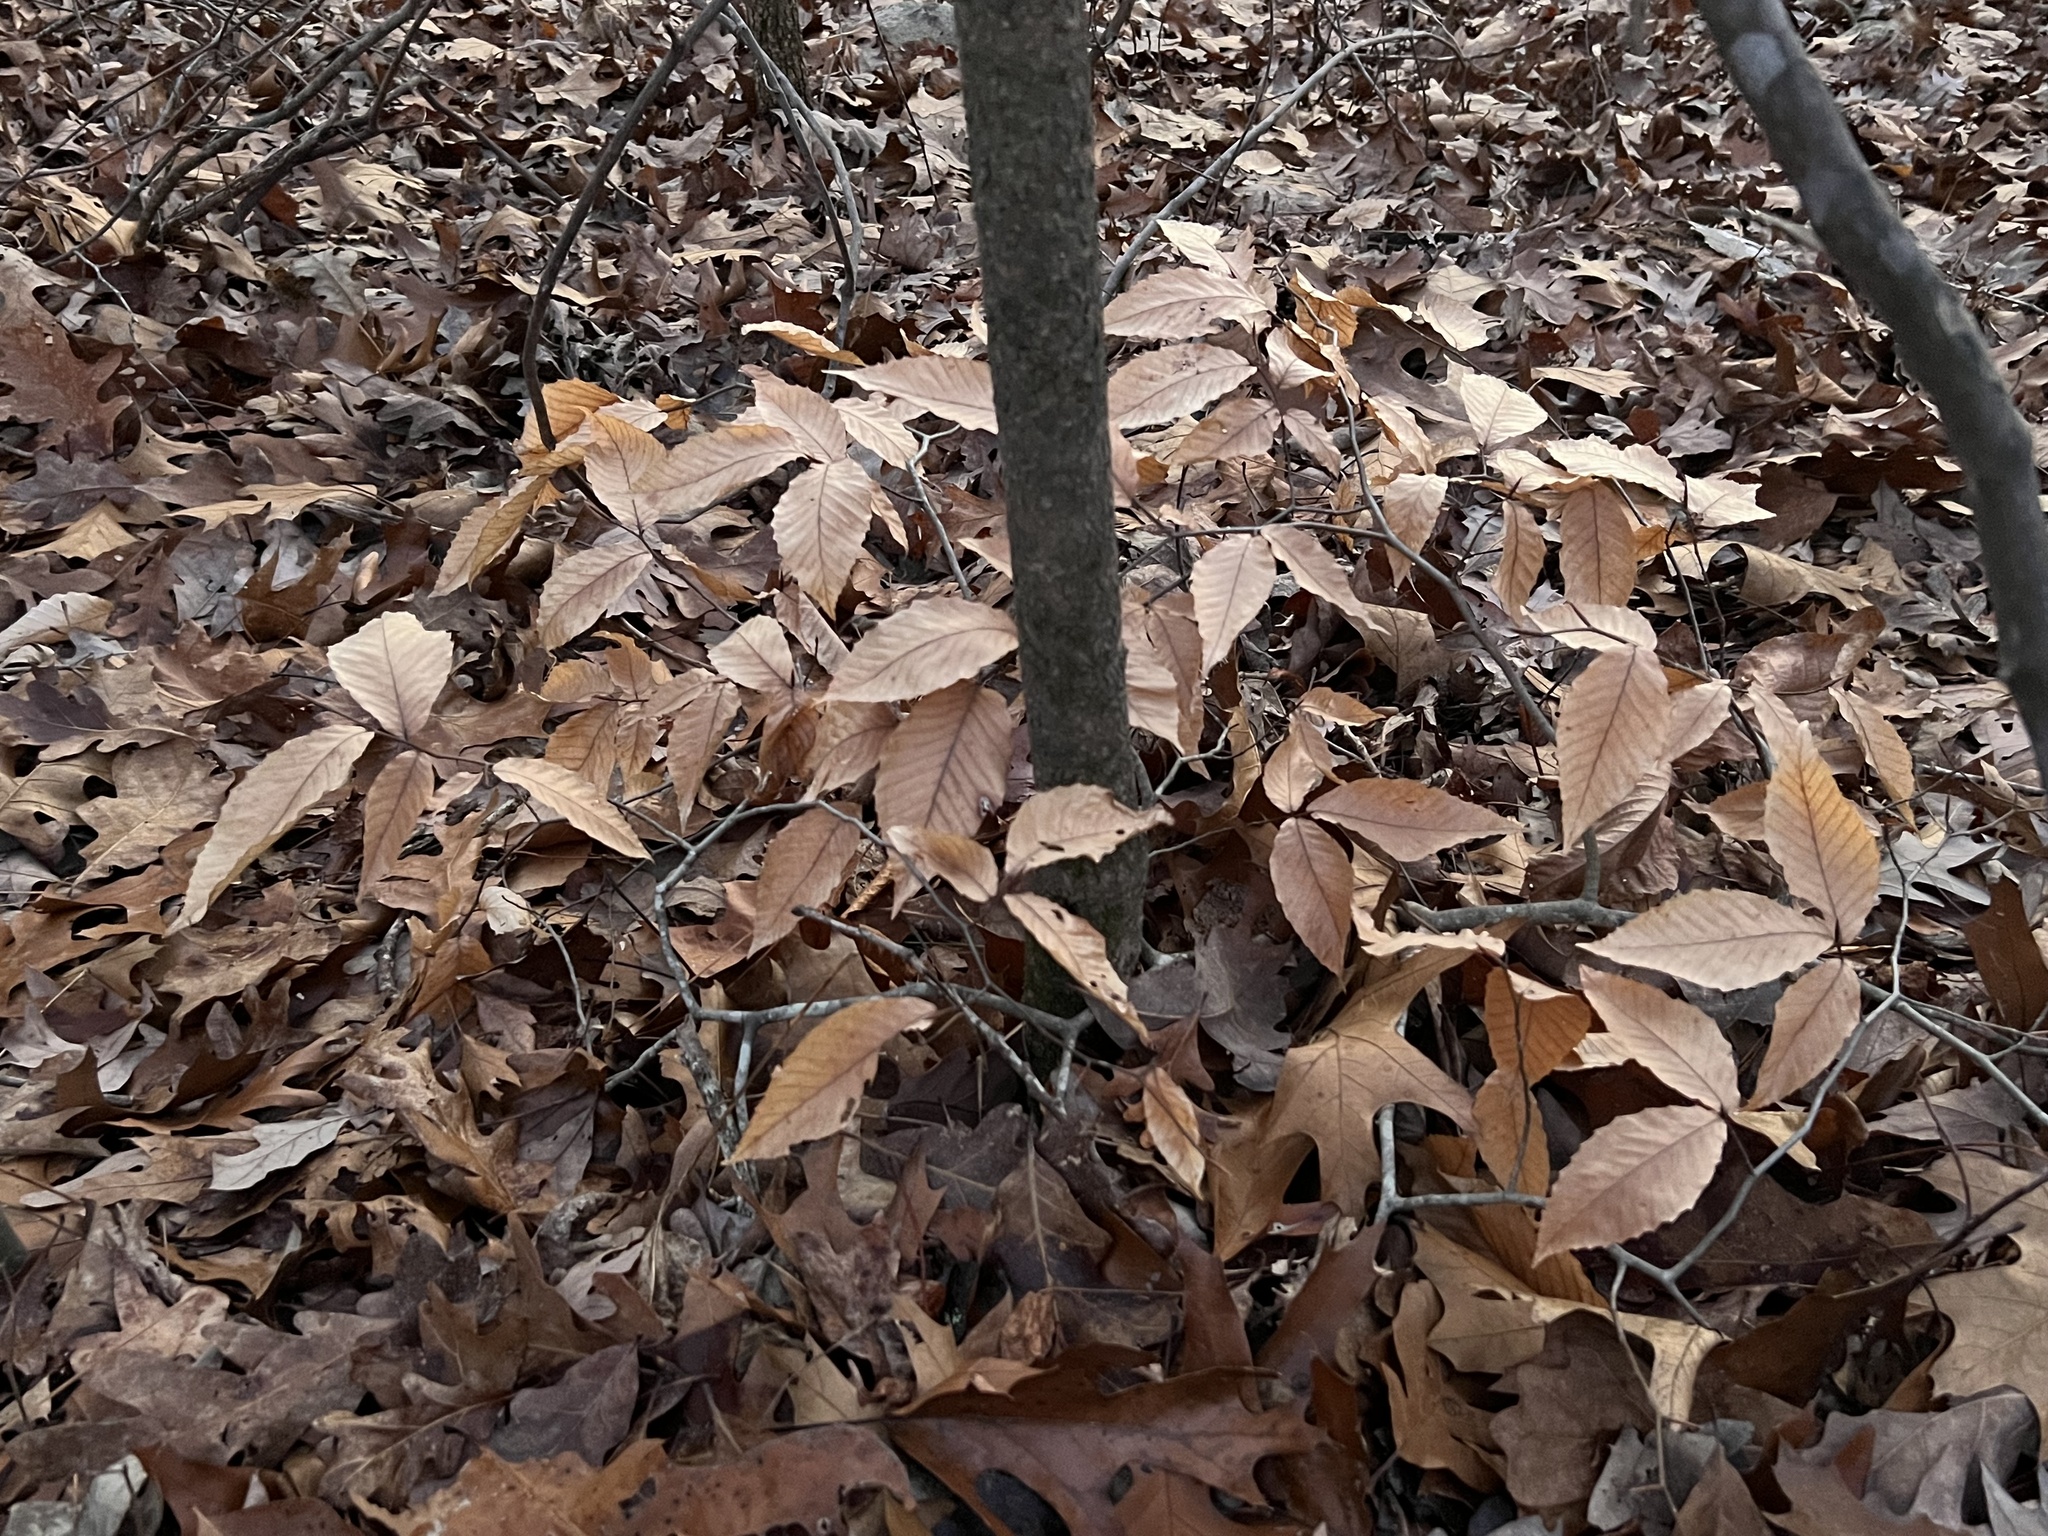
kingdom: Plantae
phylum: Tracheophyta
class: Magnoliopsida
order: Fagales
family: Fagaceae
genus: Fagus
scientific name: Fagus grandifolia
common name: American beech
